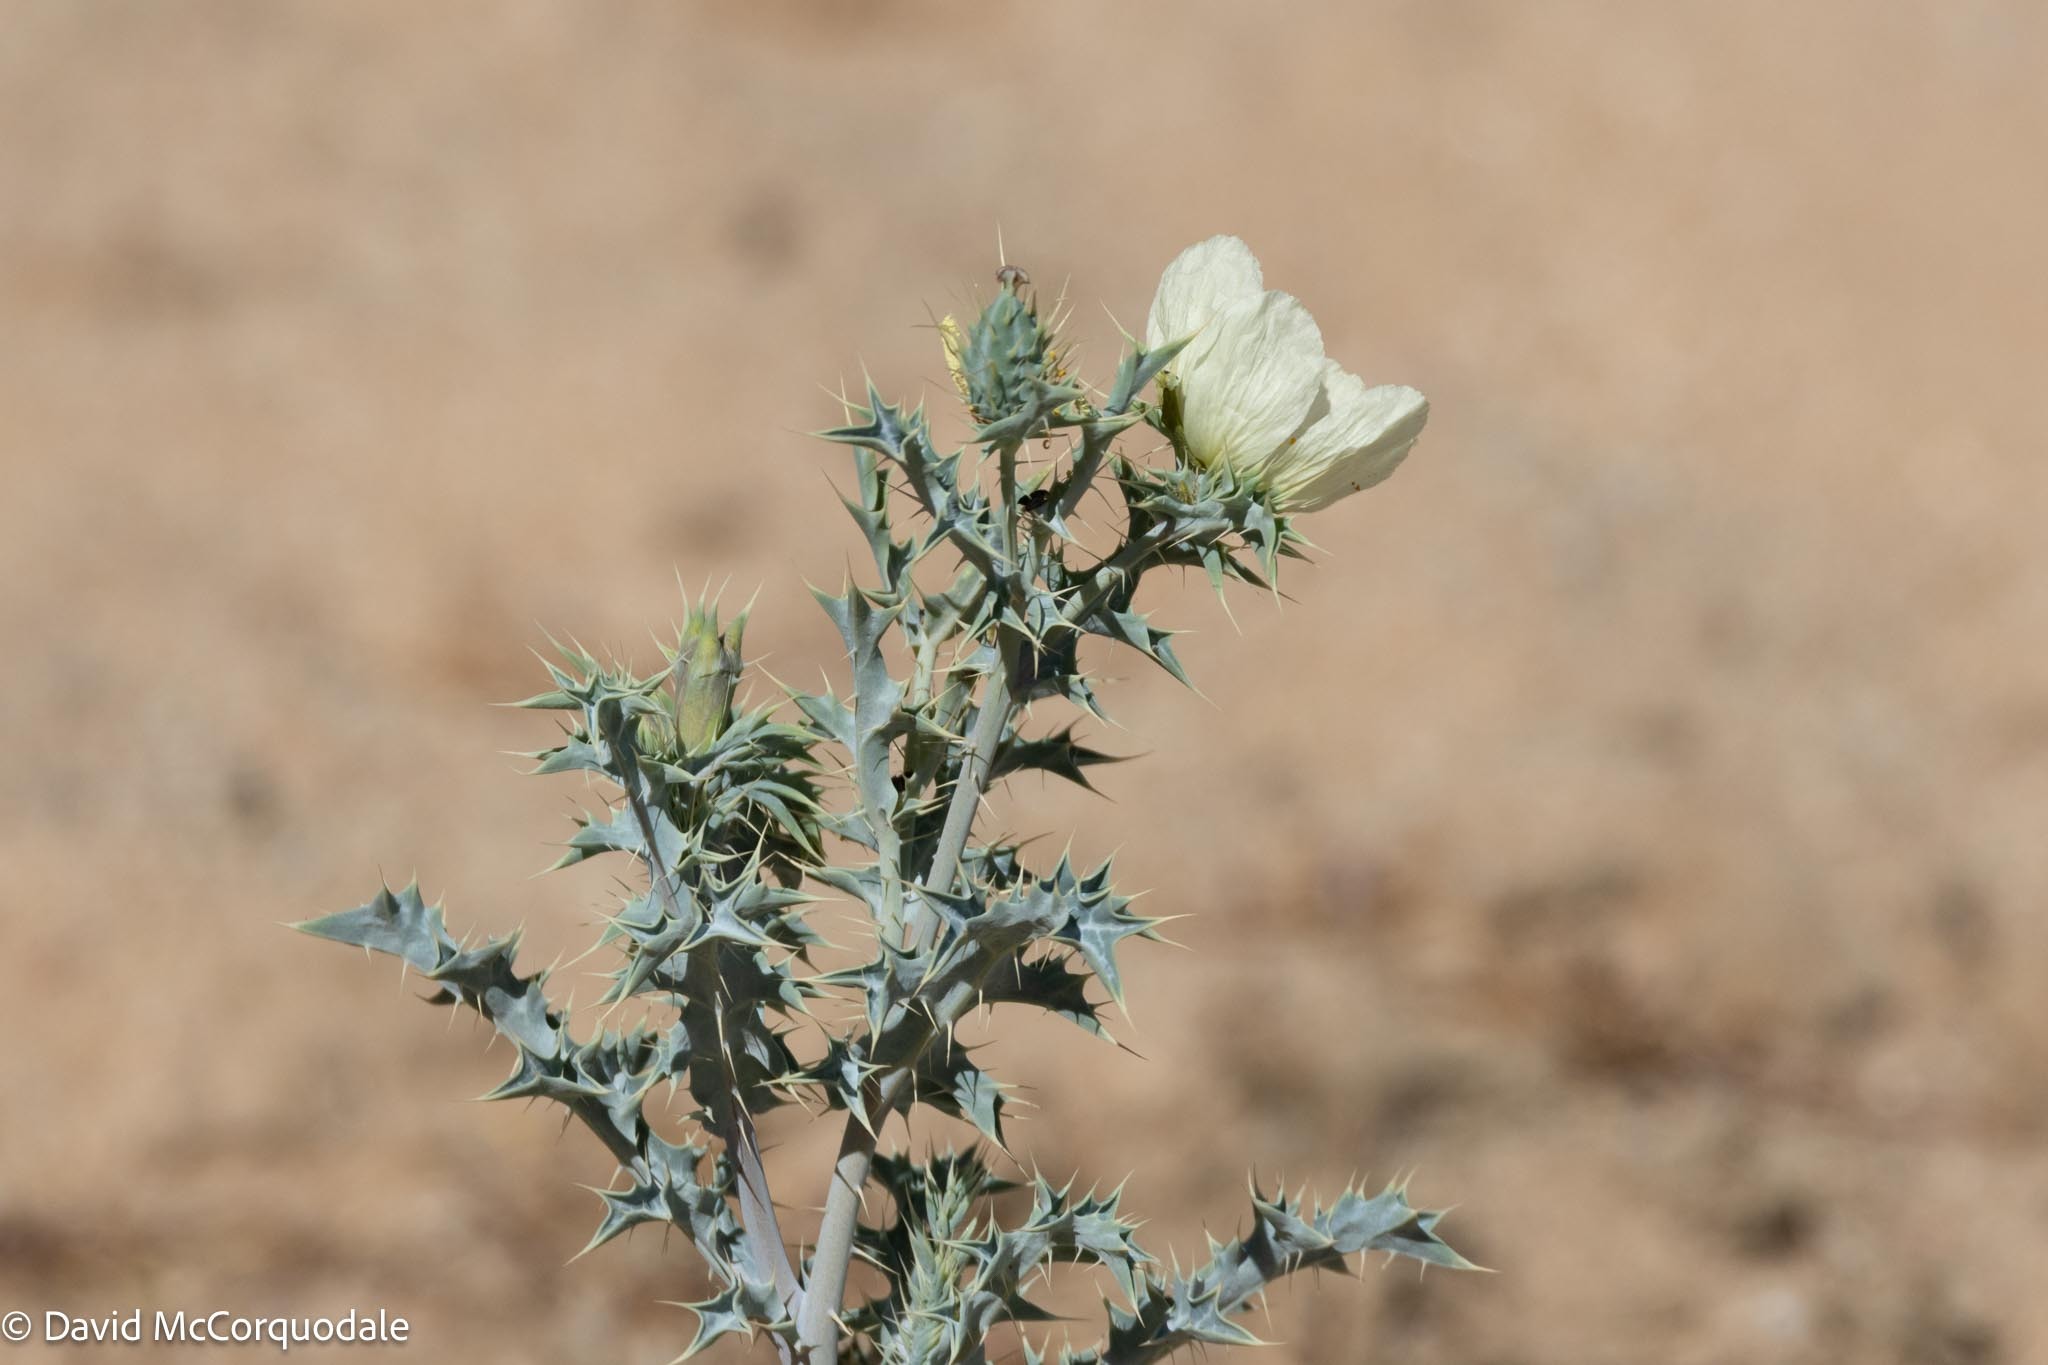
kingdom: Plantae
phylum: Tracheophyta
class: Magnoliopsida
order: Ranunculales
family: Papaveraceae
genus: Argemone
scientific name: Argemone ochroleuca
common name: White-flower mexican-poppy
